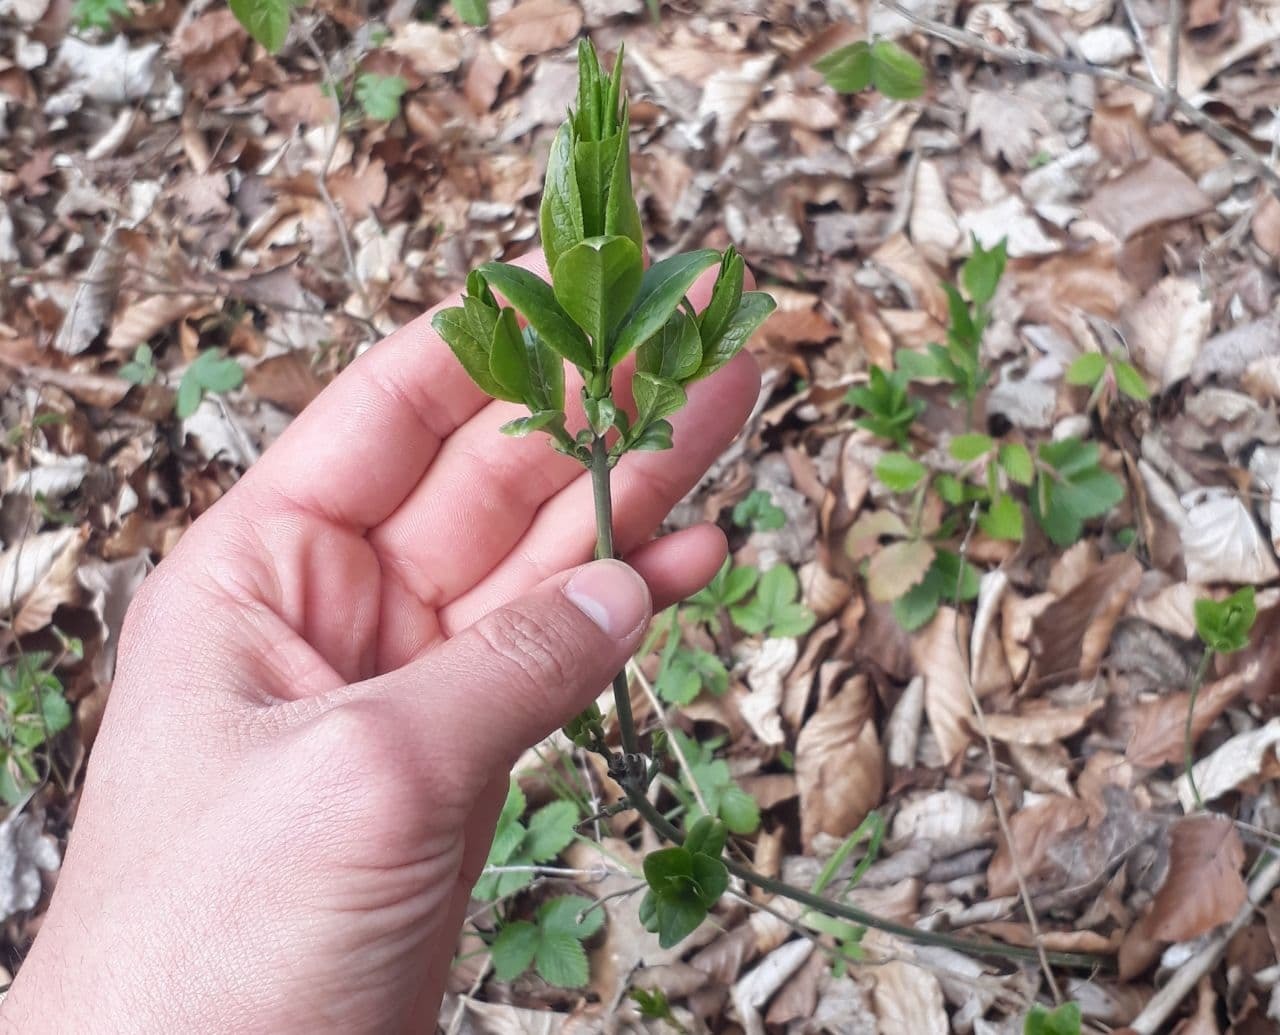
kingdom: Plantae
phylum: Tracheophyta
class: Magnoliopsida
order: Celastrales
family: Celastraceae
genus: Euonymus
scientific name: Euonymus europaeus
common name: Spindle
